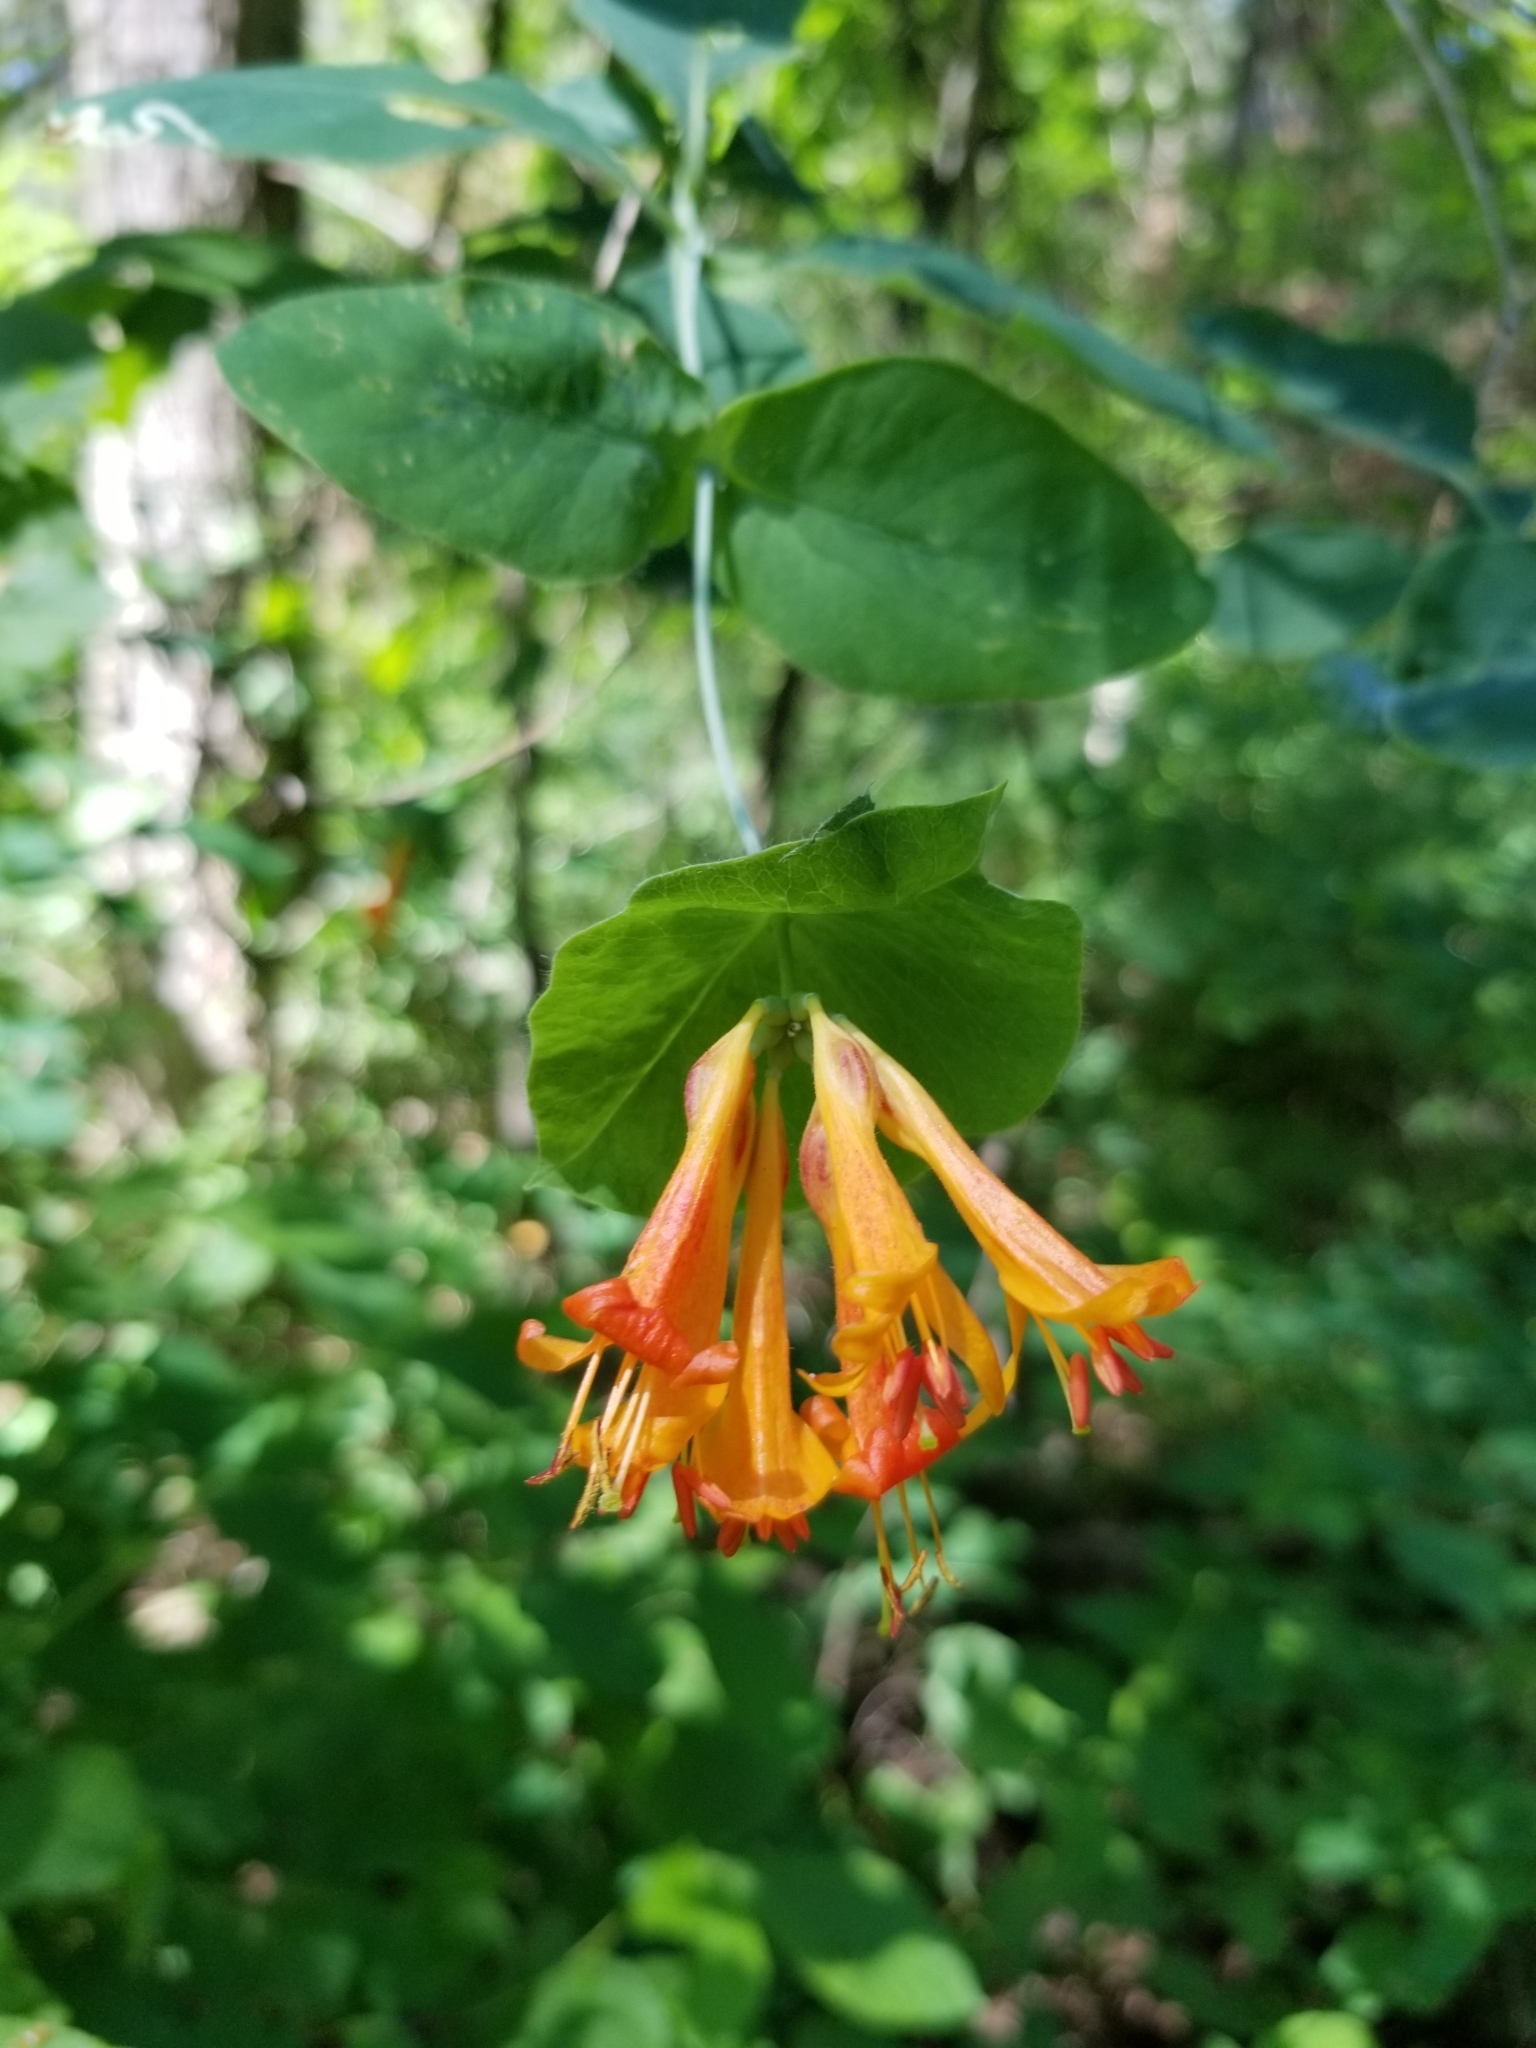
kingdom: Plantae
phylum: Tracheophyta
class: Magnoliopsida
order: Dipsacales
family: Caprifoliaceae
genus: Lonicera
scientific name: Lonicera ciliosa
